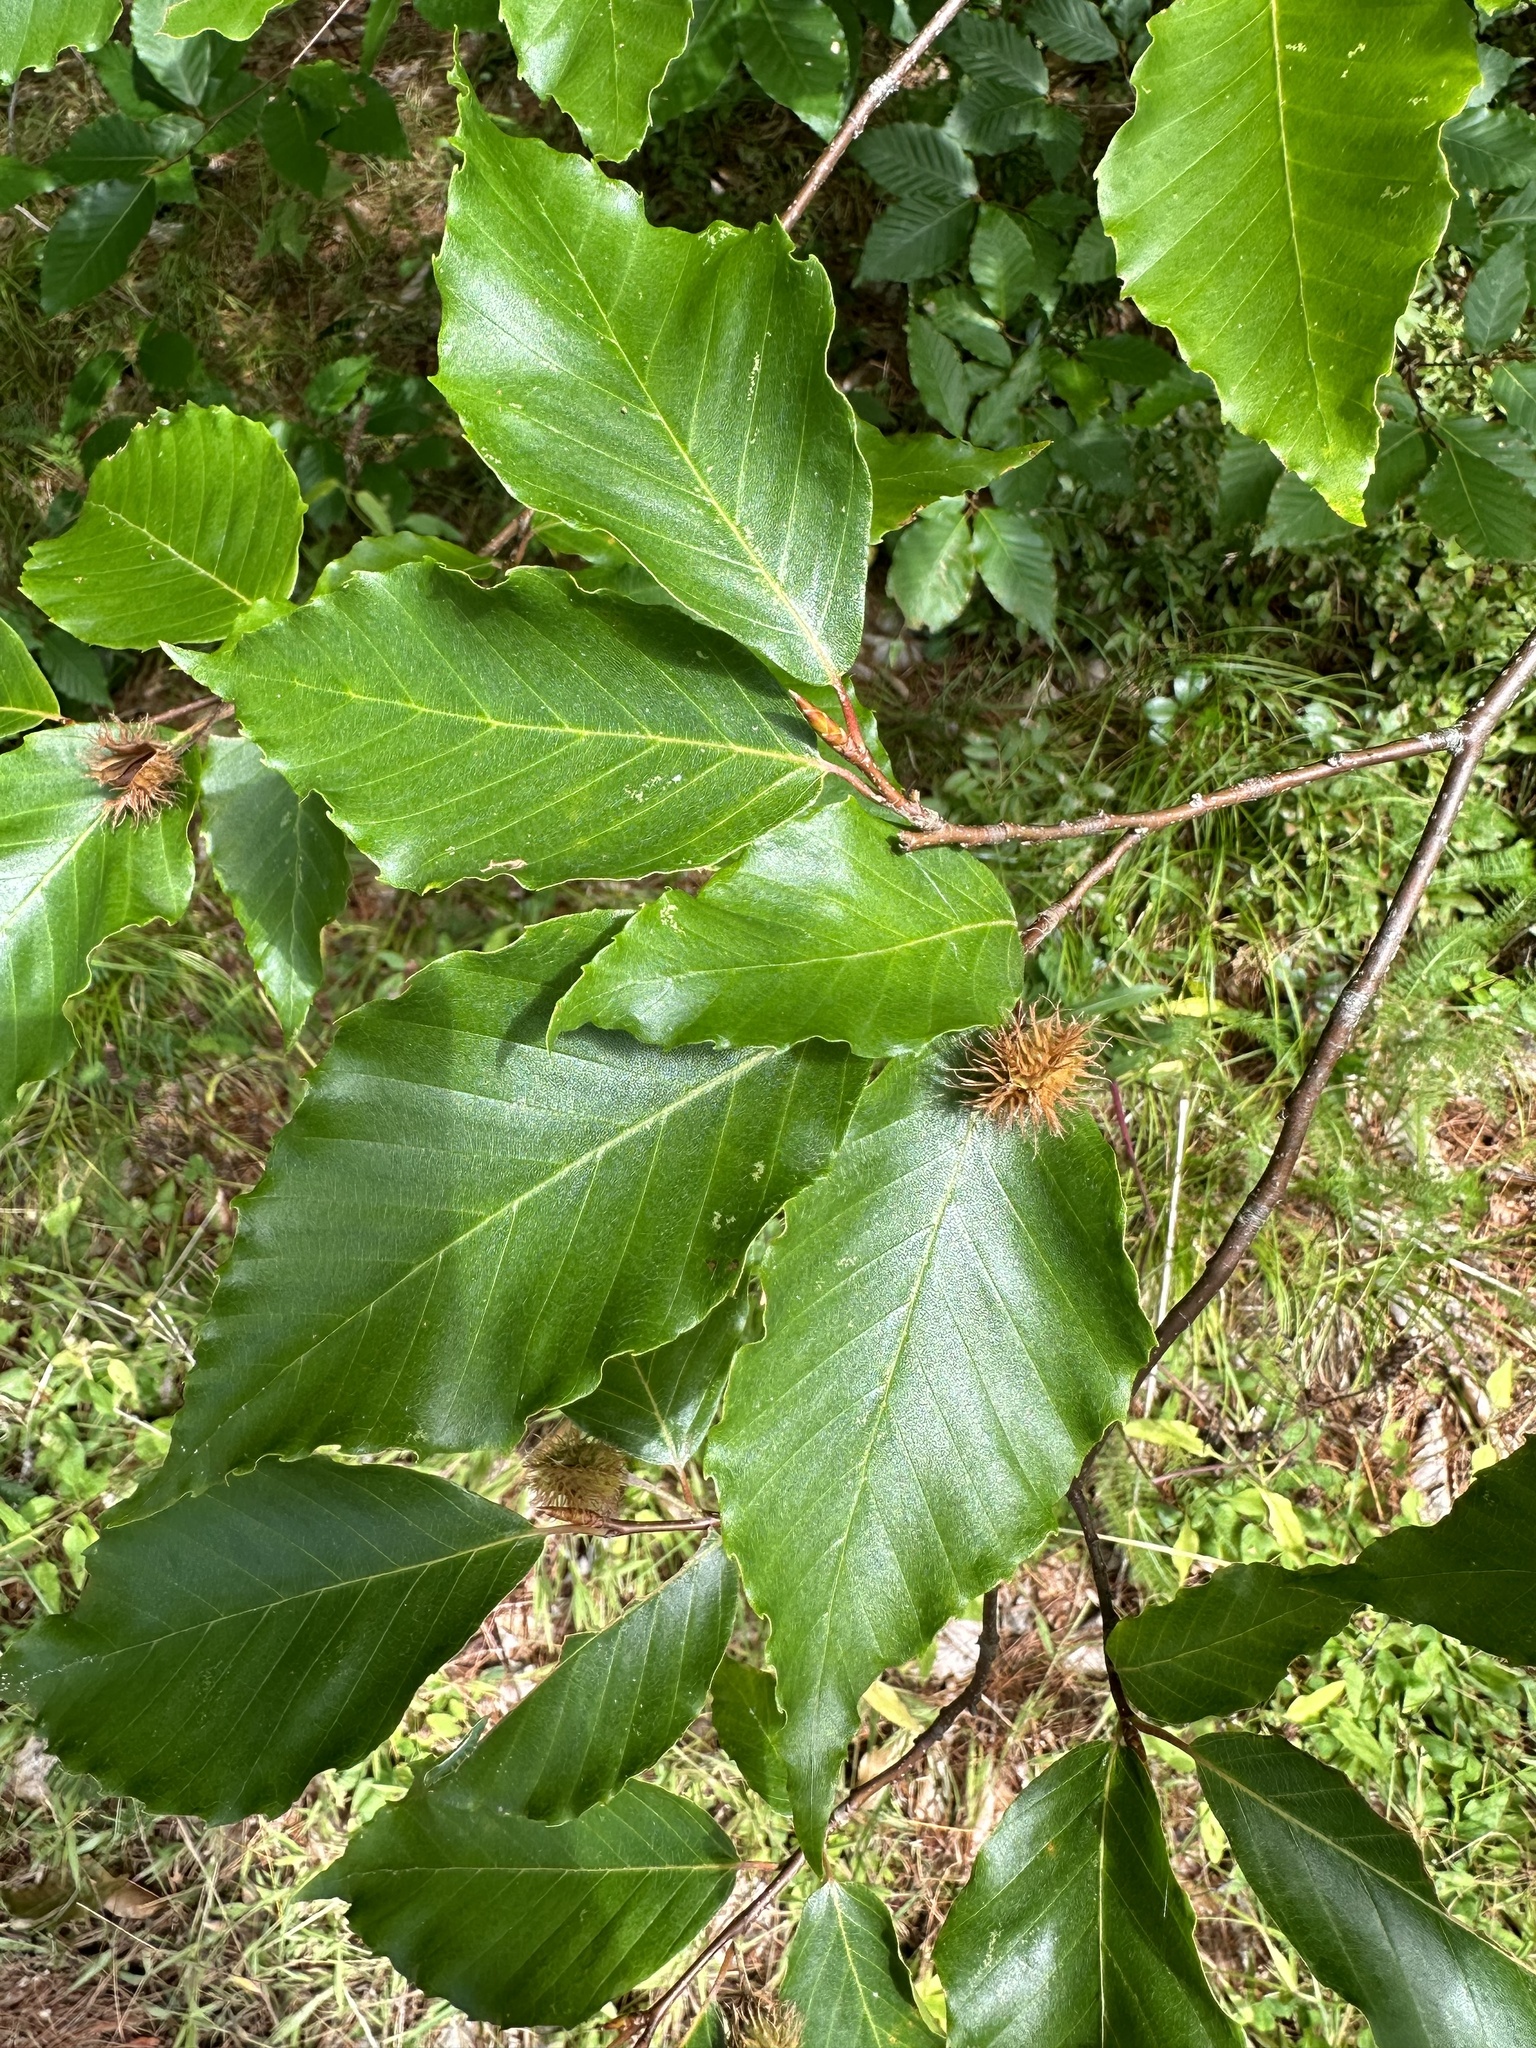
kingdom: Plantae
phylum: Tracheophyta
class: Magnoliopsida
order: Fagales
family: Fagaceae
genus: Fagus
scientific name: Fagus sylvatica
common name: Beech
